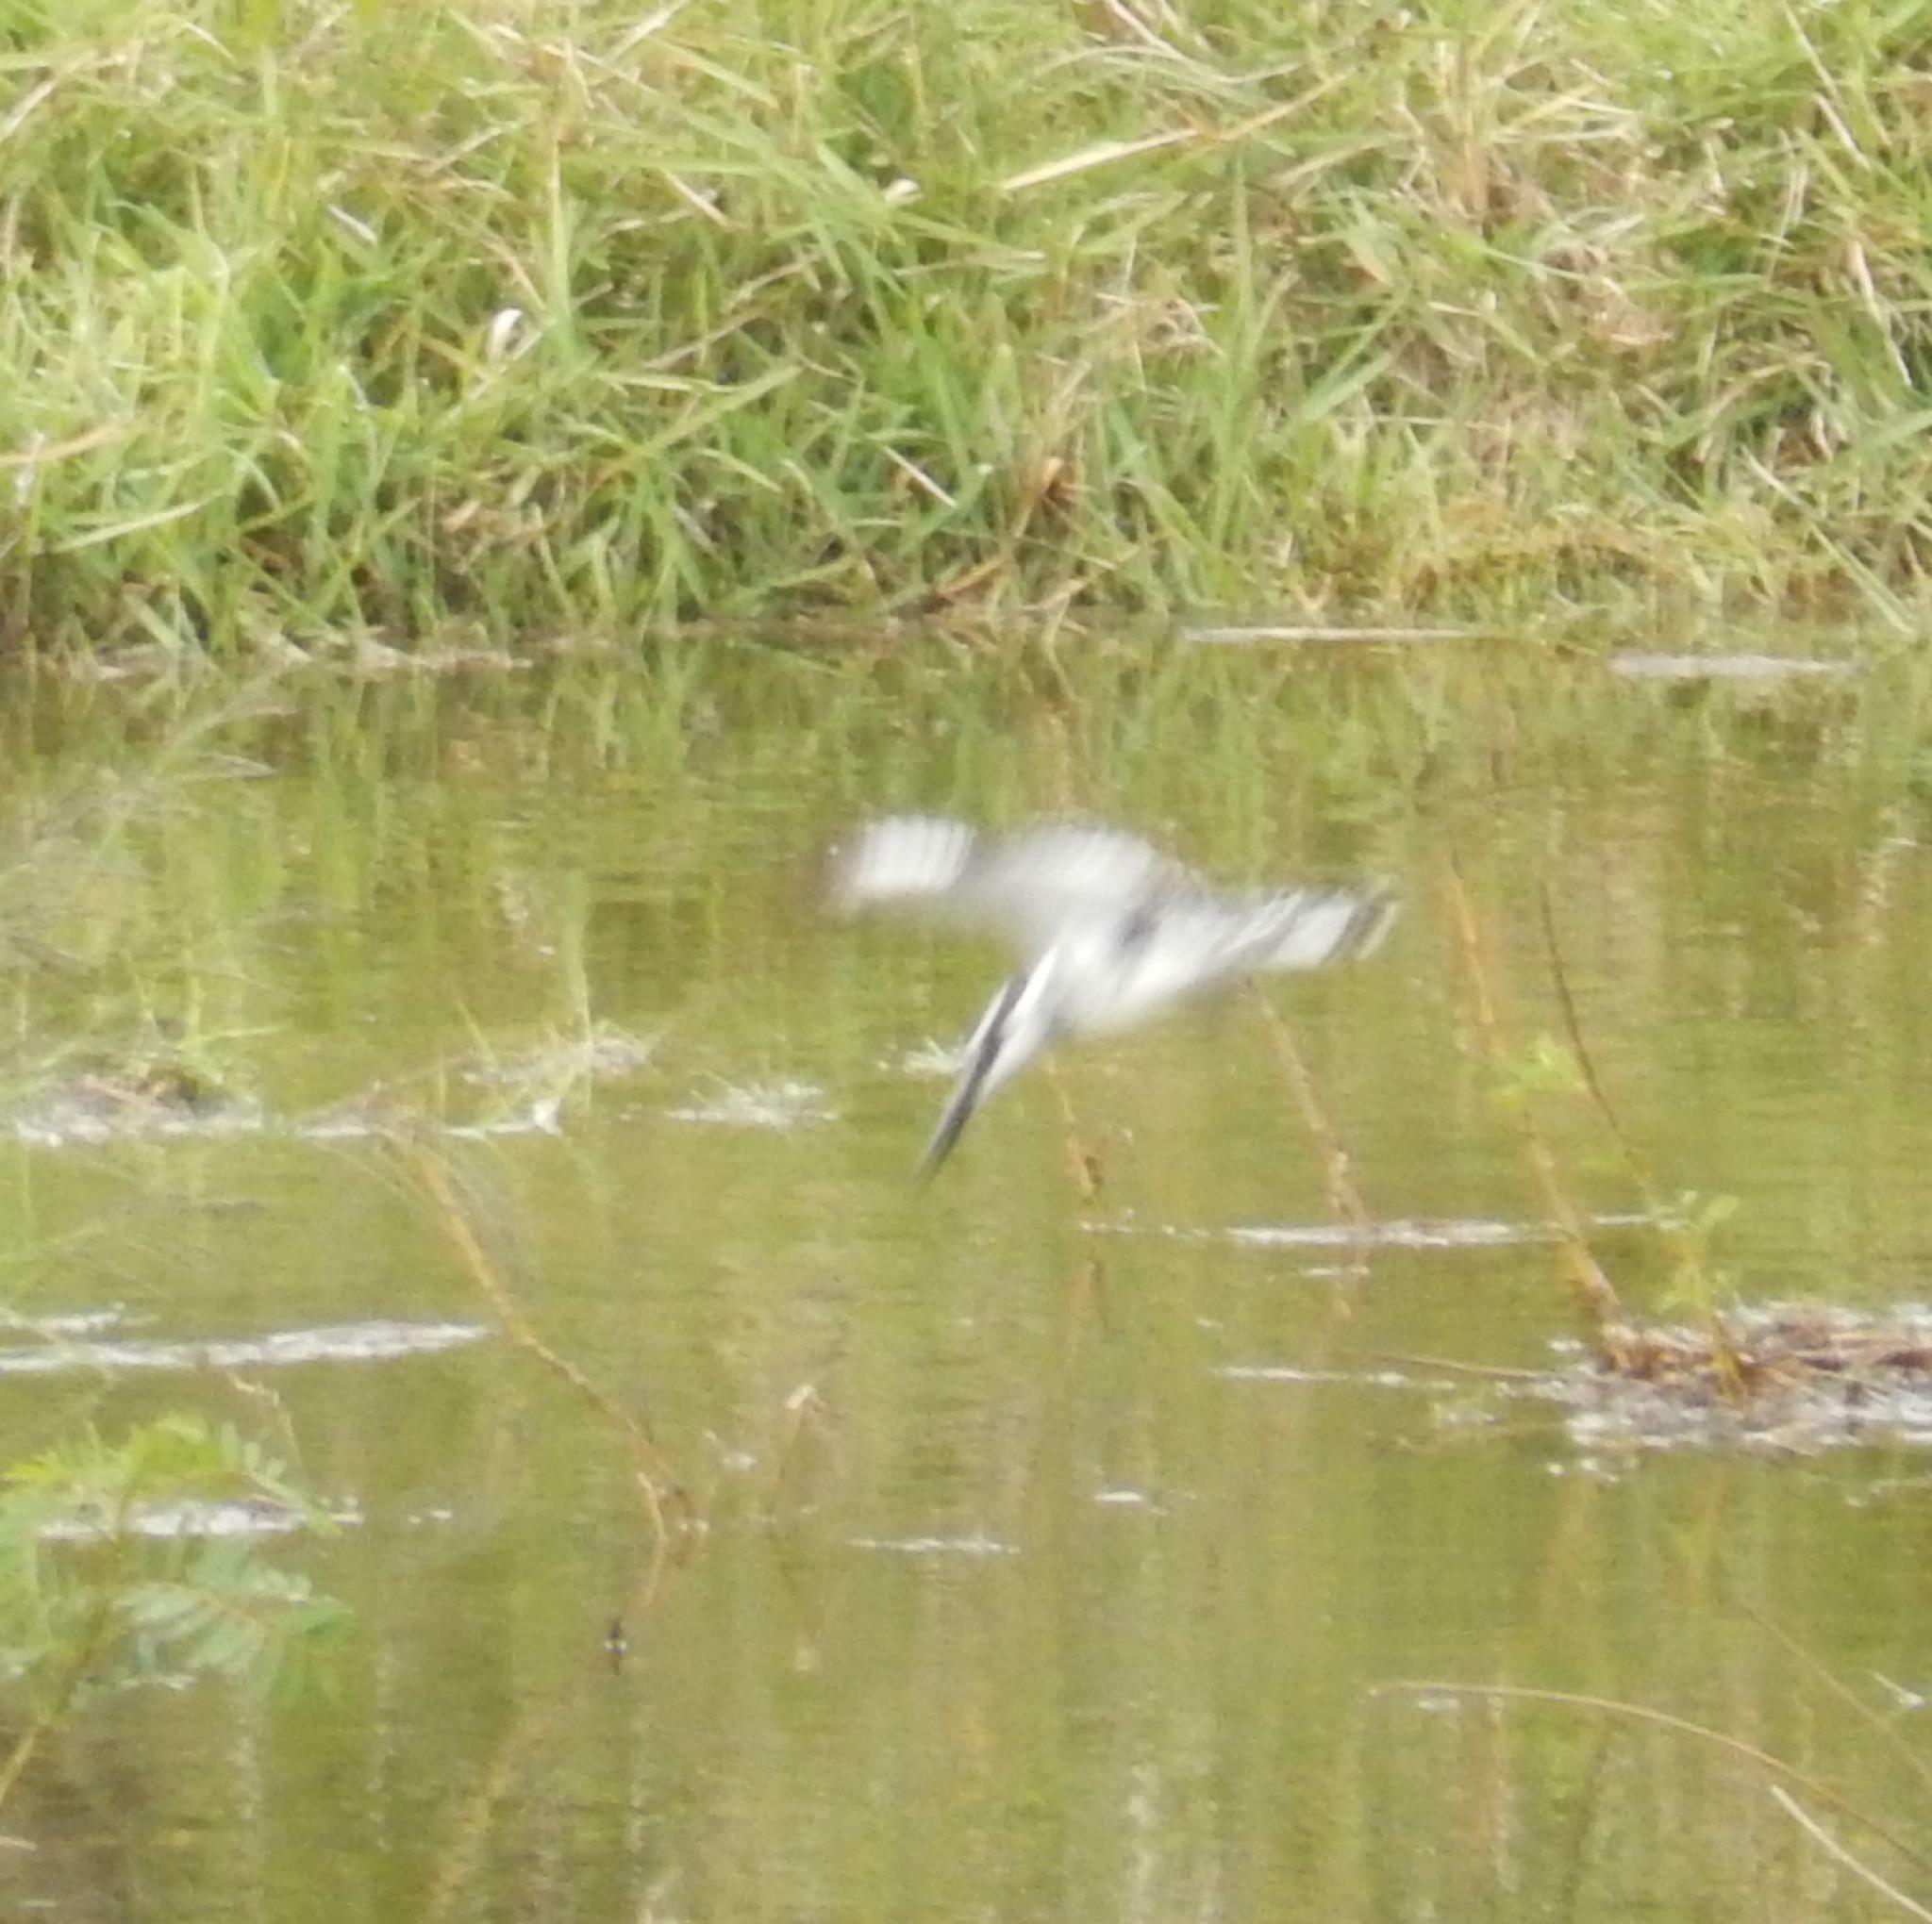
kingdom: Animalia
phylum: Chordata
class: Aves
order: Coraciiformes
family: Alcedinidae
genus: Ceryle
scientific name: Ceryle rudis
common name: Pied kingfisher
